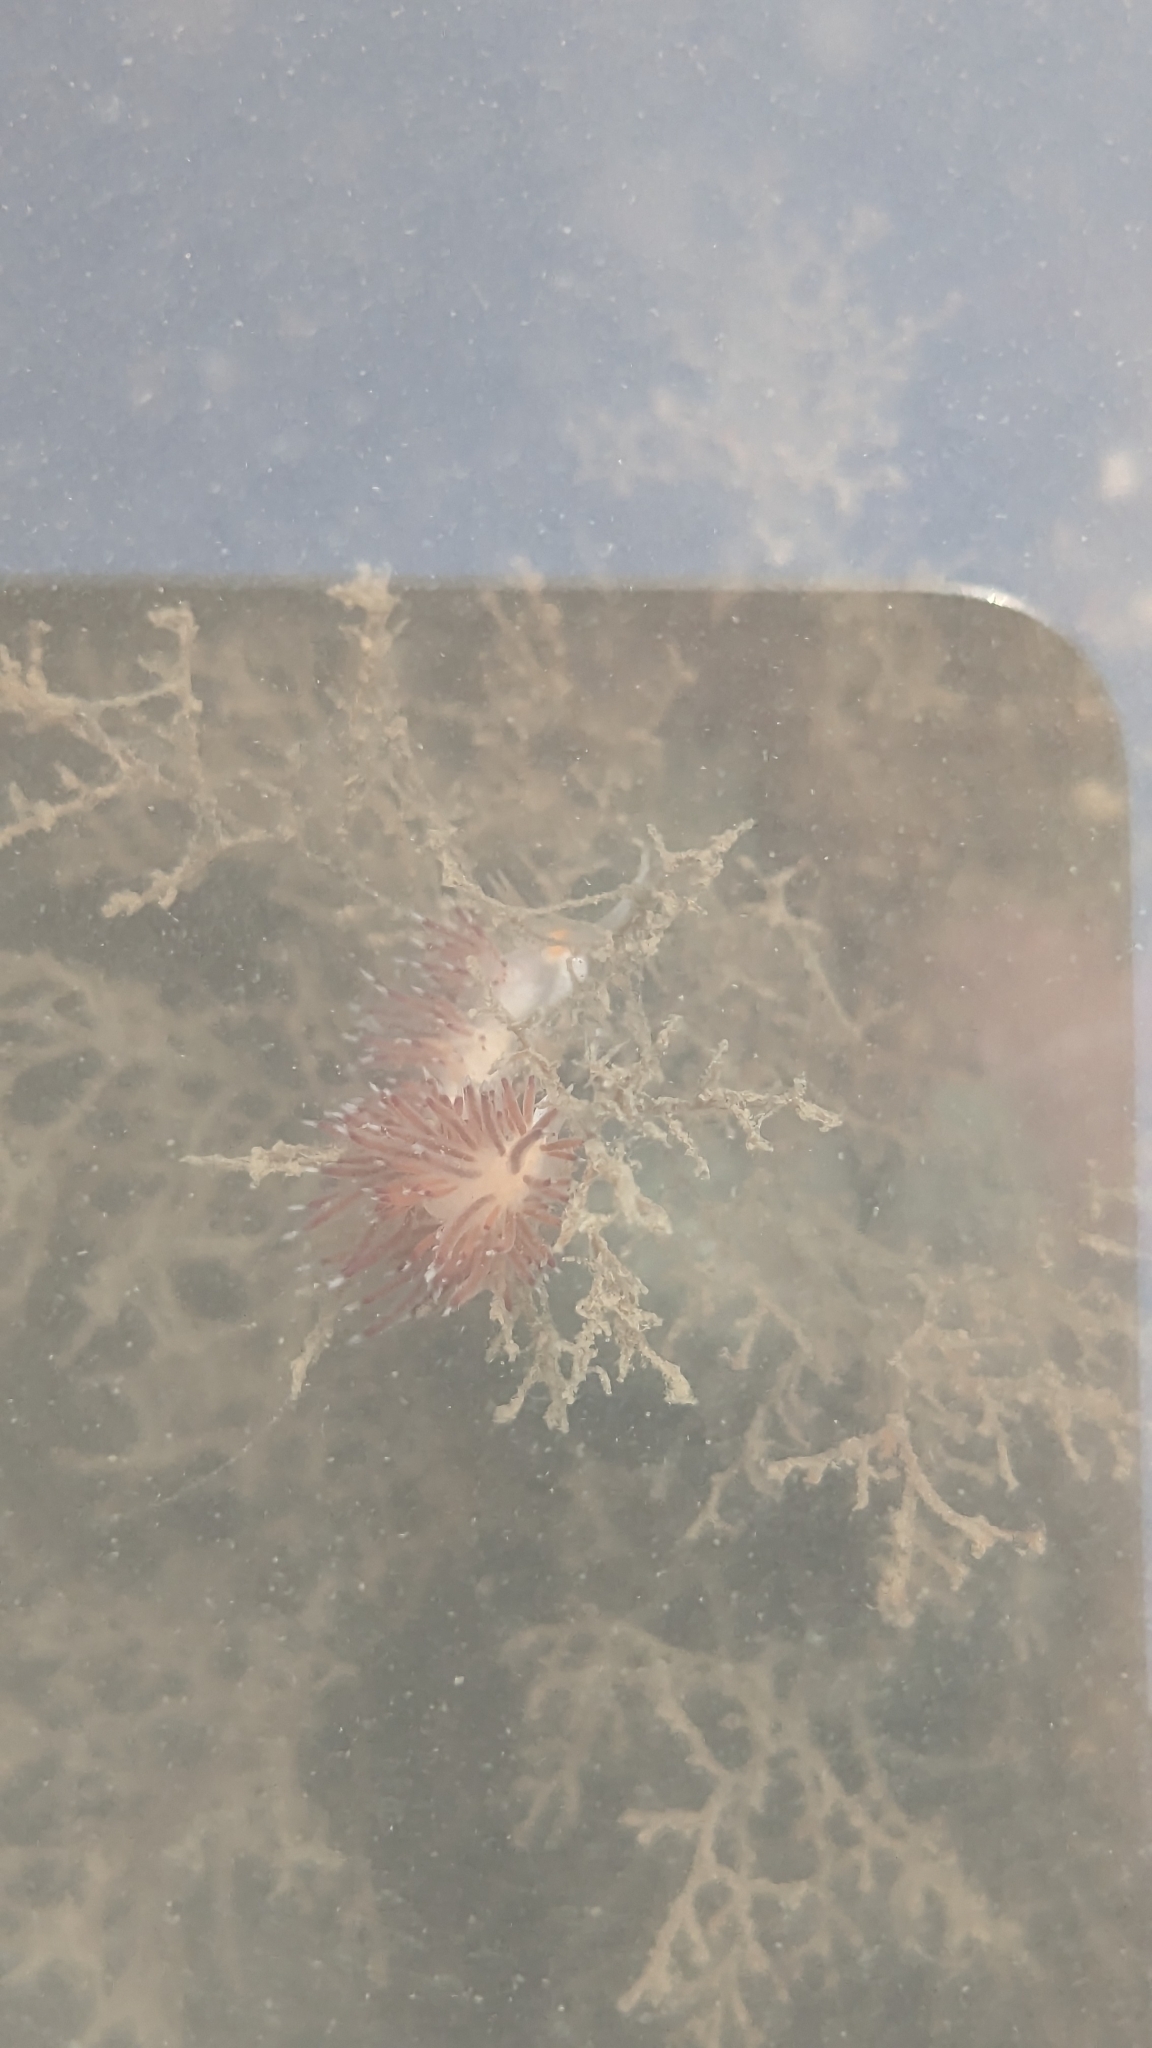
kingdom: Animalia
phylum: Mollusca
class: Gastropoda
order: Nudibranchia
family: Facelinidae
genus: Cratena
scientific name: Cratena pawarshindeorum
